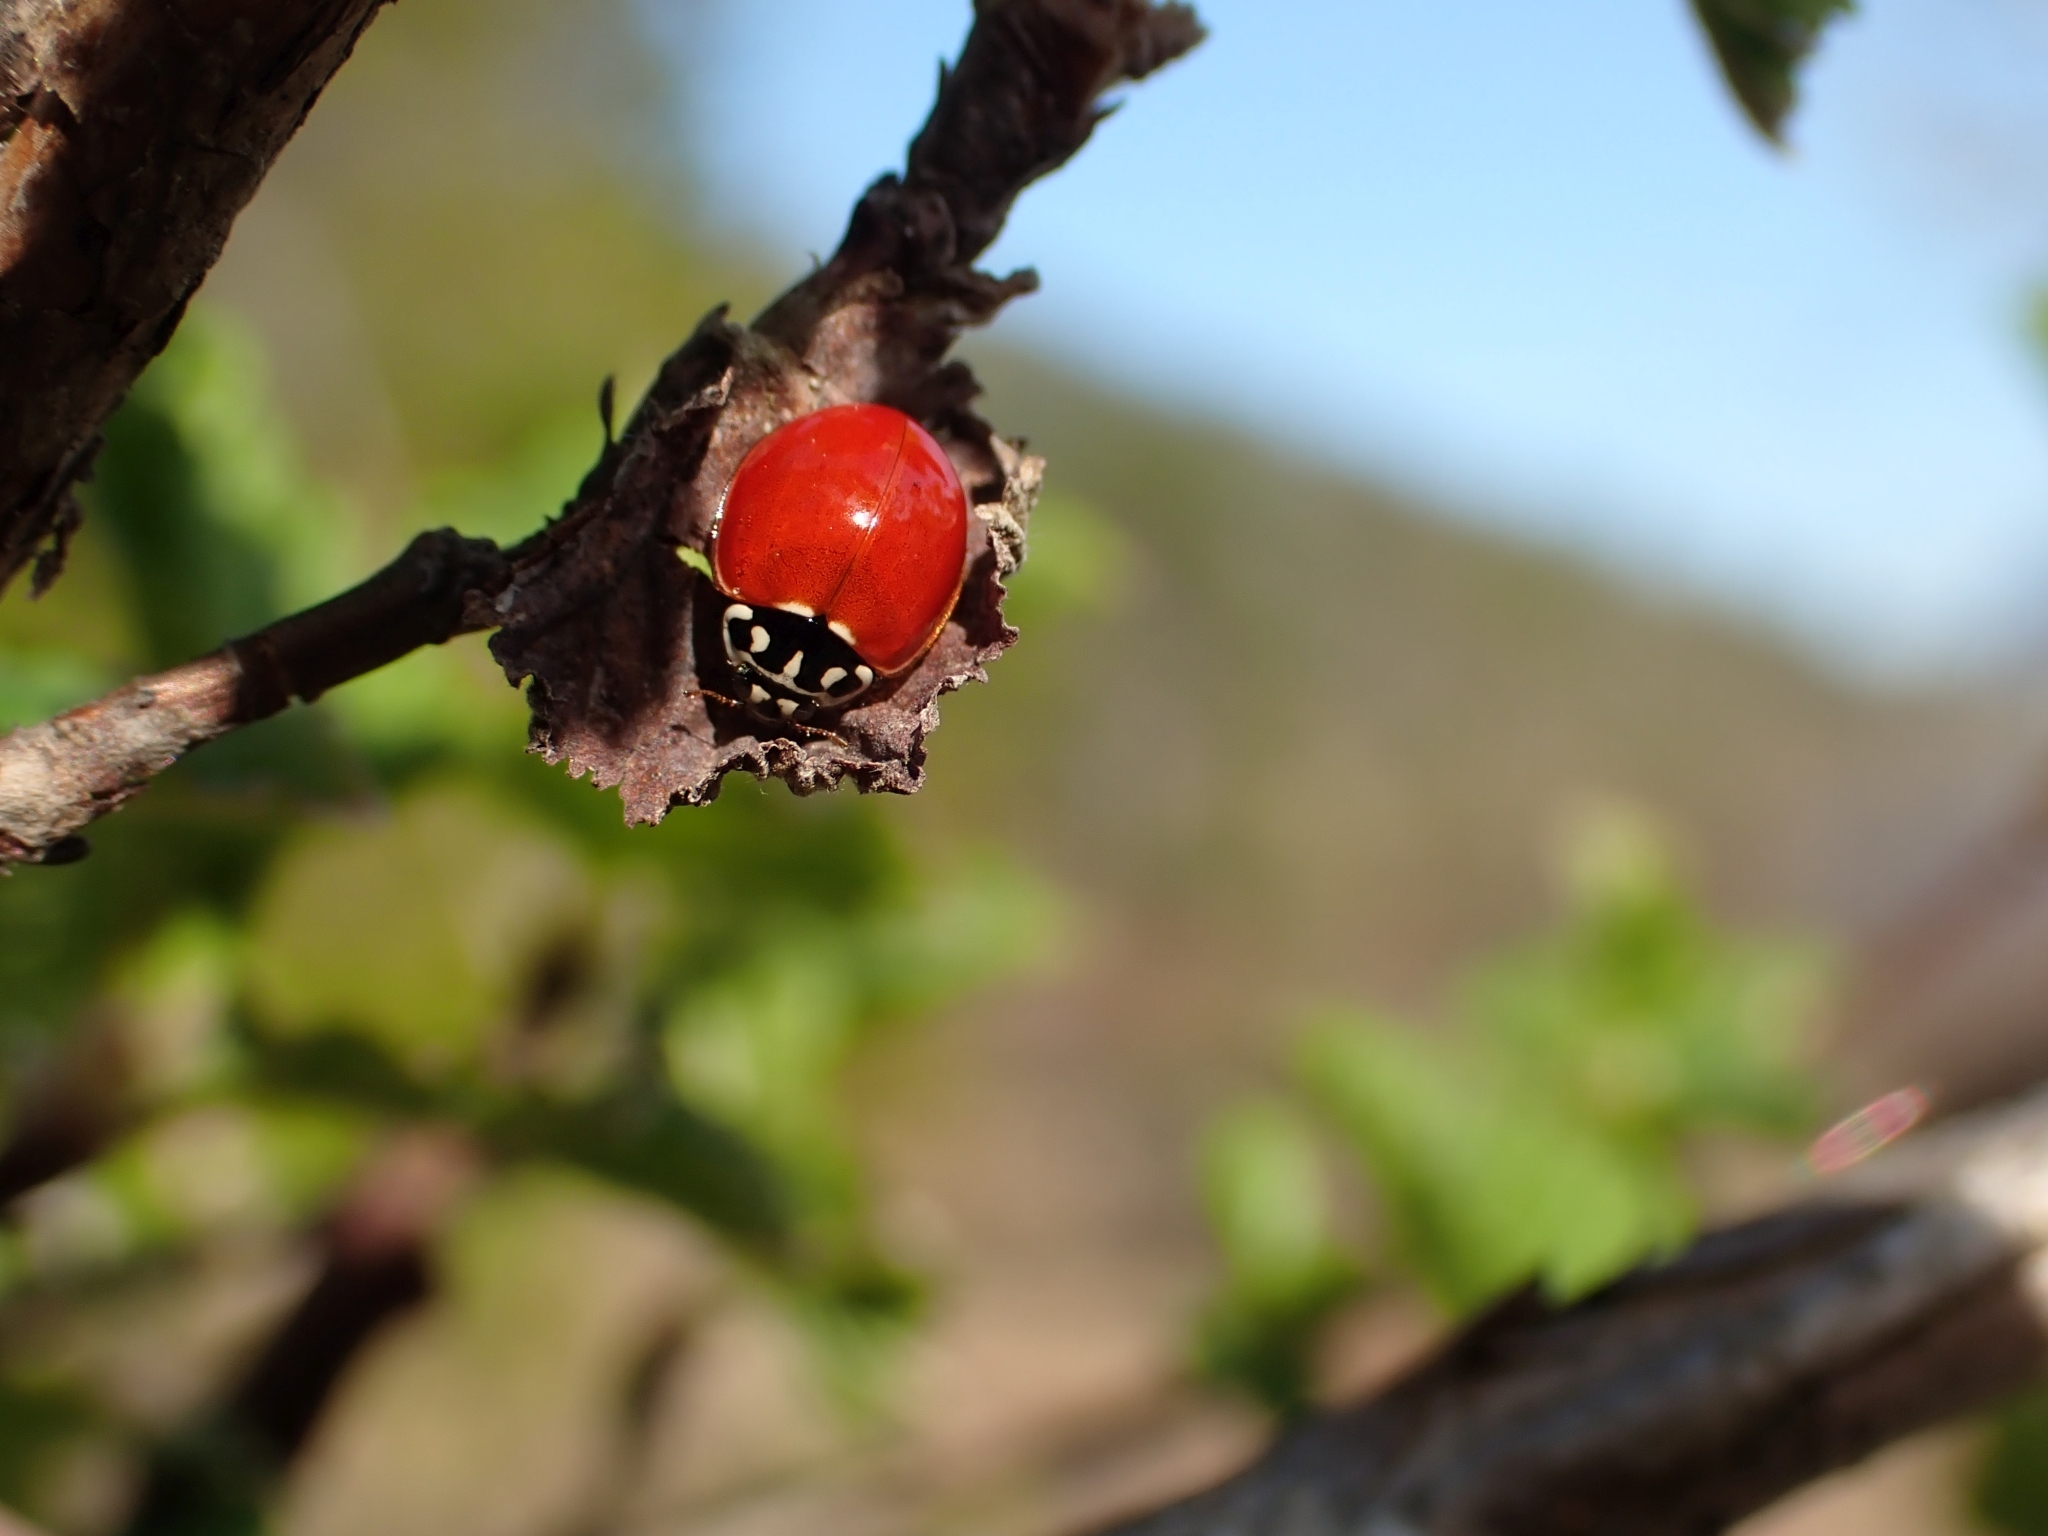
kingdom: Animalia
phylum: Arthropoda
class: Insecta
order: Coleoptera
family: Coccinellidae
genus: Cycloneda
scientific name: Cycloneda polita
